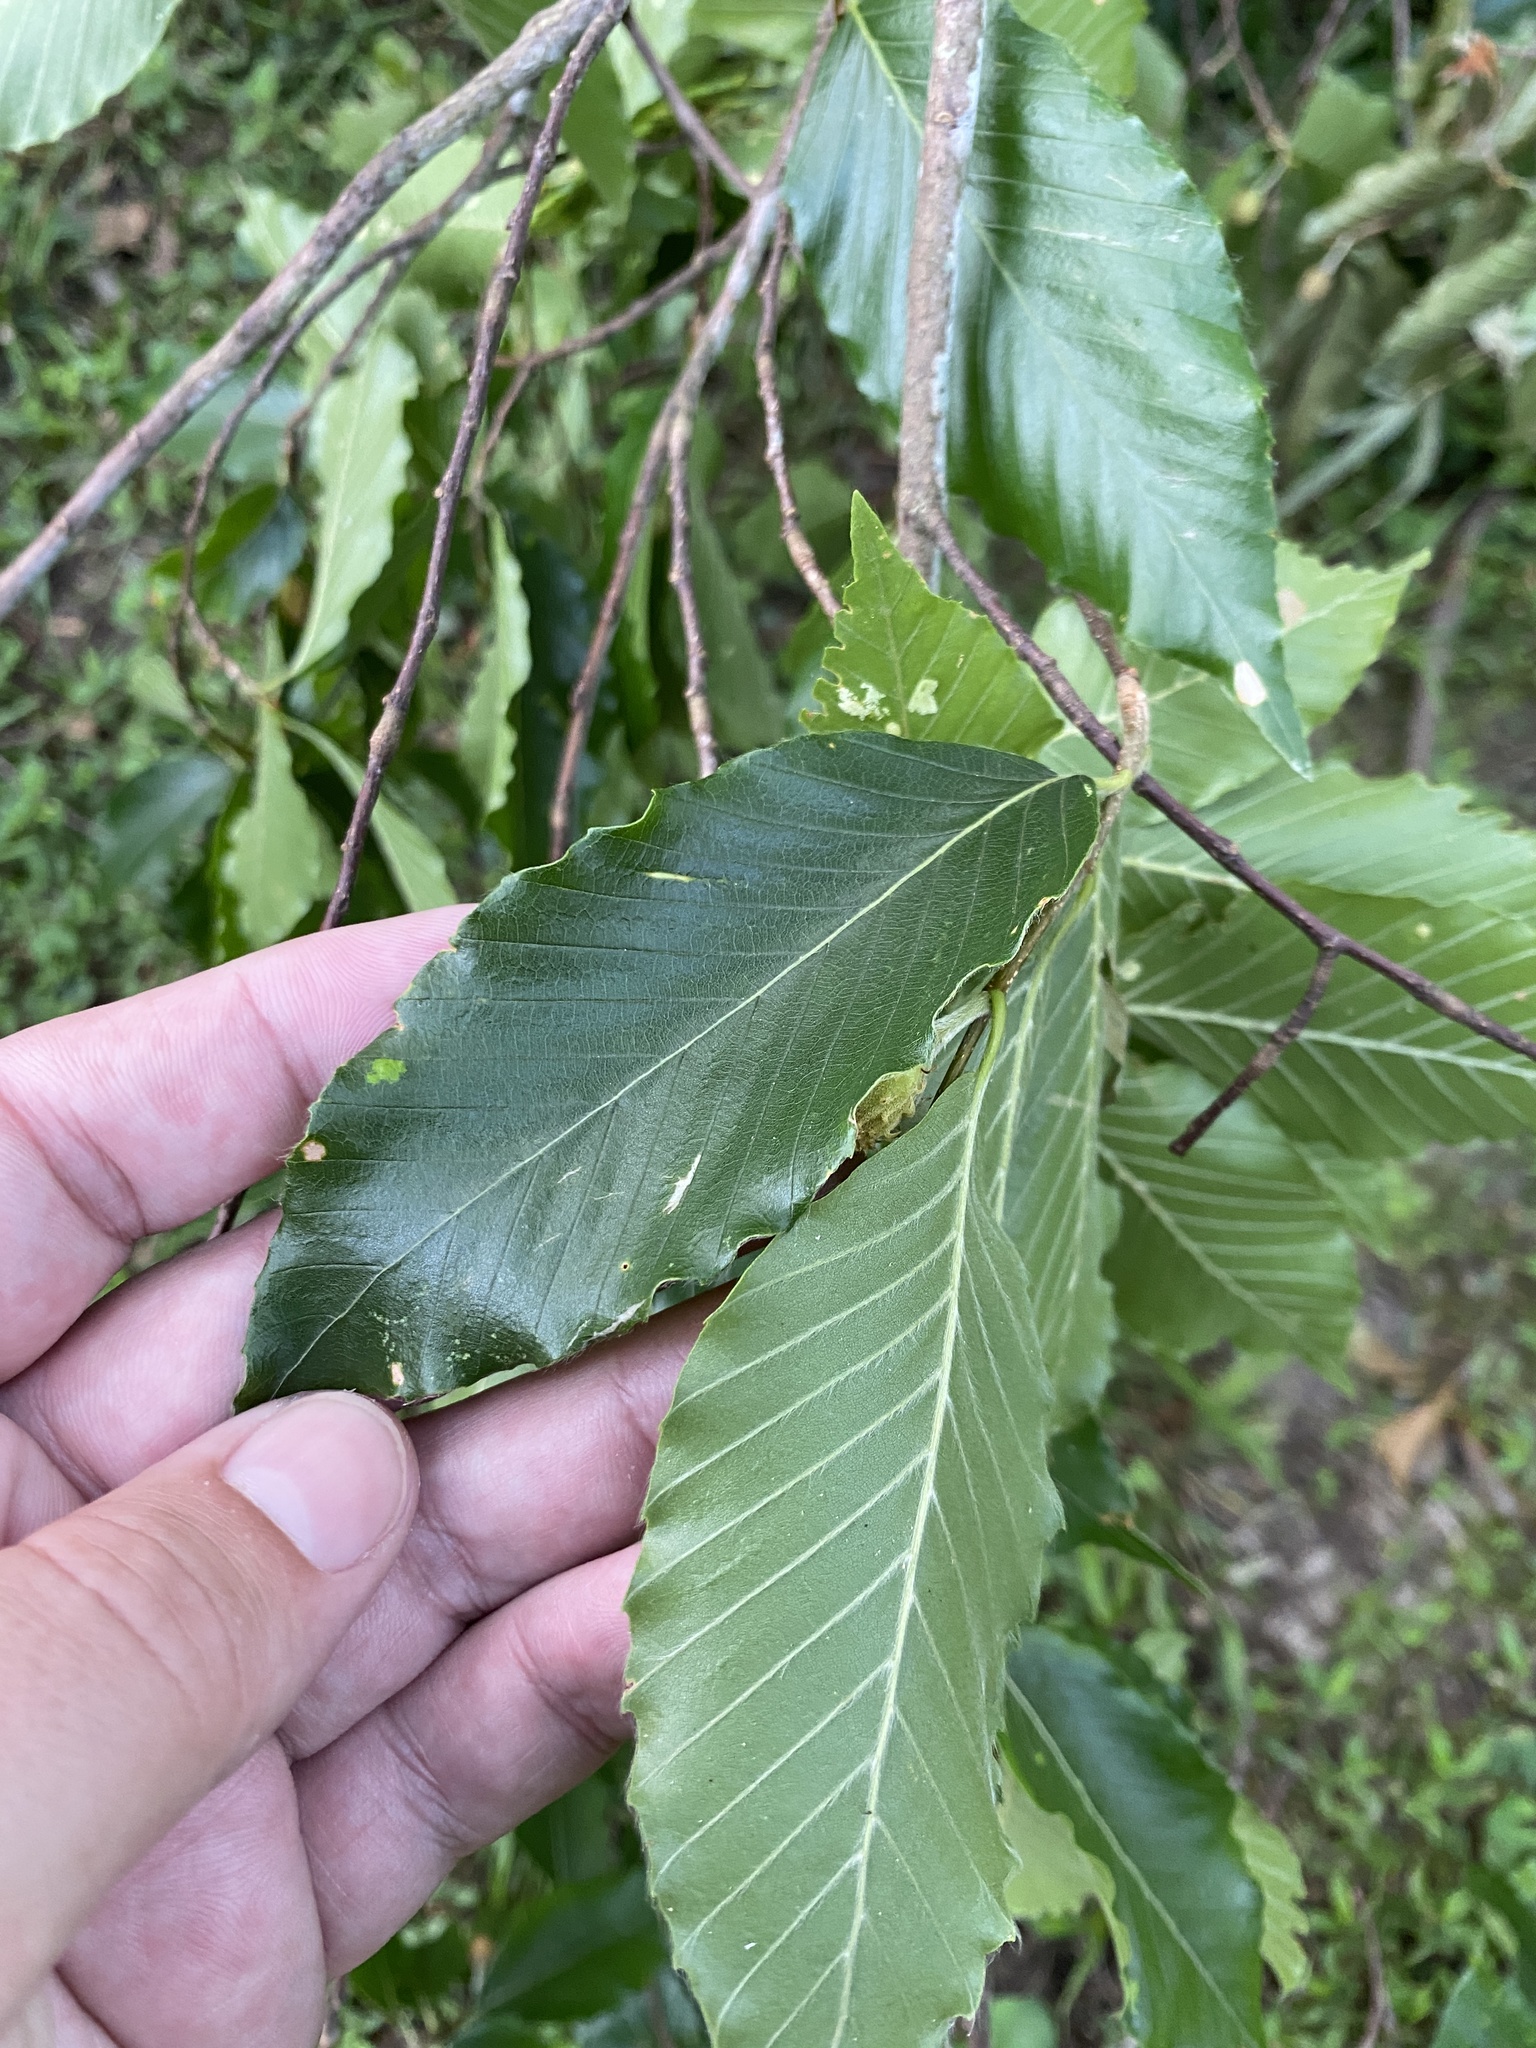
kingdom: Plantae
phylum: Tracheophyta
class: Magnoliopsida
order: Fagales
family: Fagaceae
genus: Fagus
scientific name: Fagus grandifolia
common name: American beech
